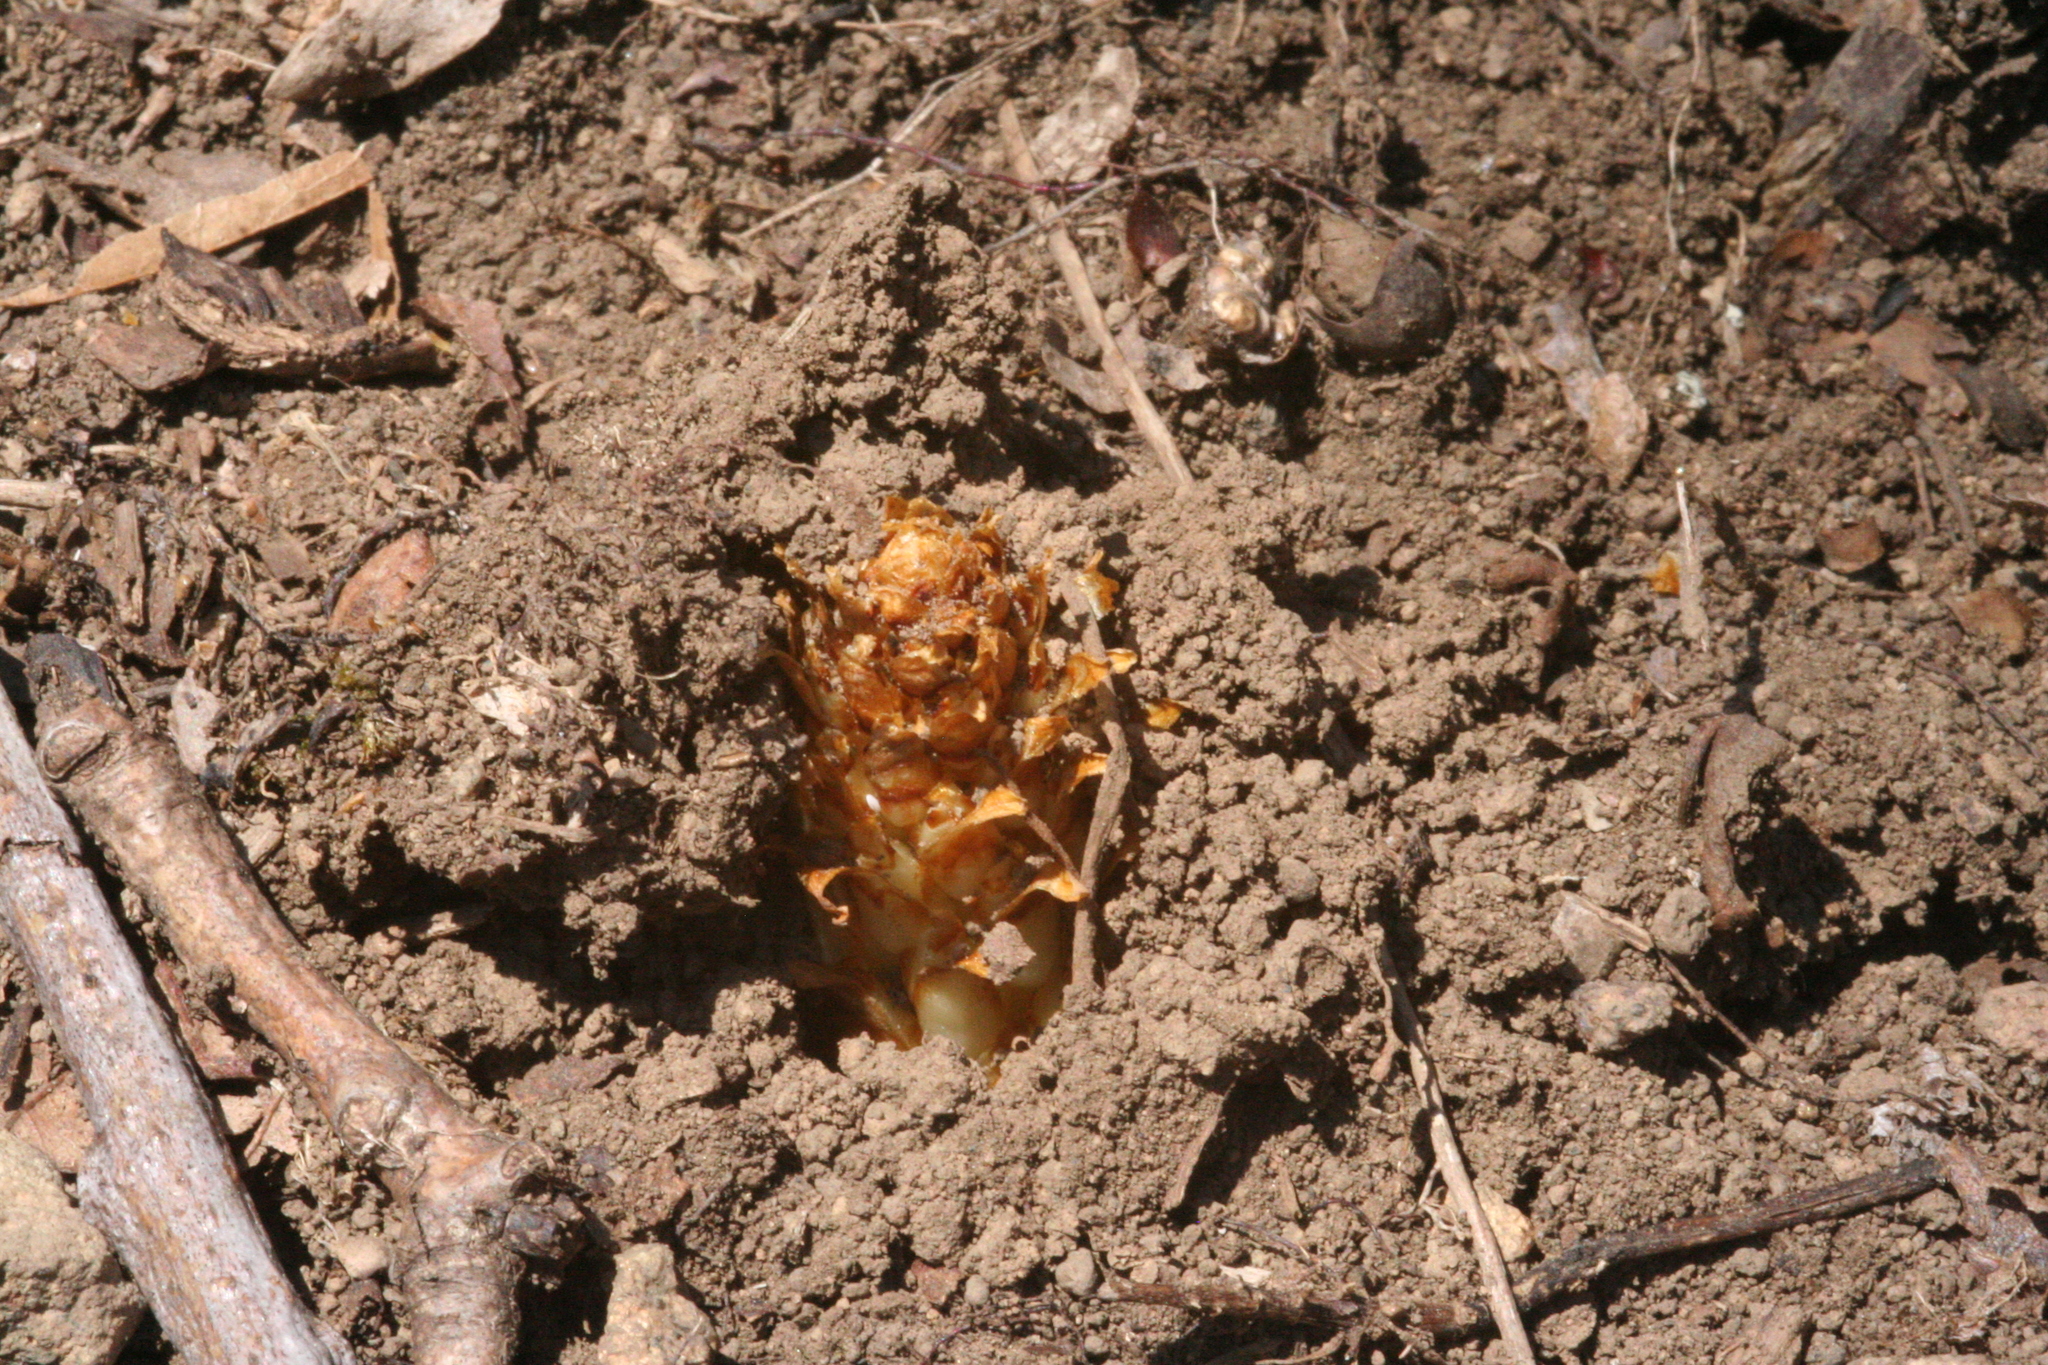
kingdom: Plantae
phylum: Tracheophyta
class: Magnoliopsida
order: Lamiales
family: Orobanchaceae
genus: Conopholis
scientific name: Conopholis americana
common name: American cancer-root
